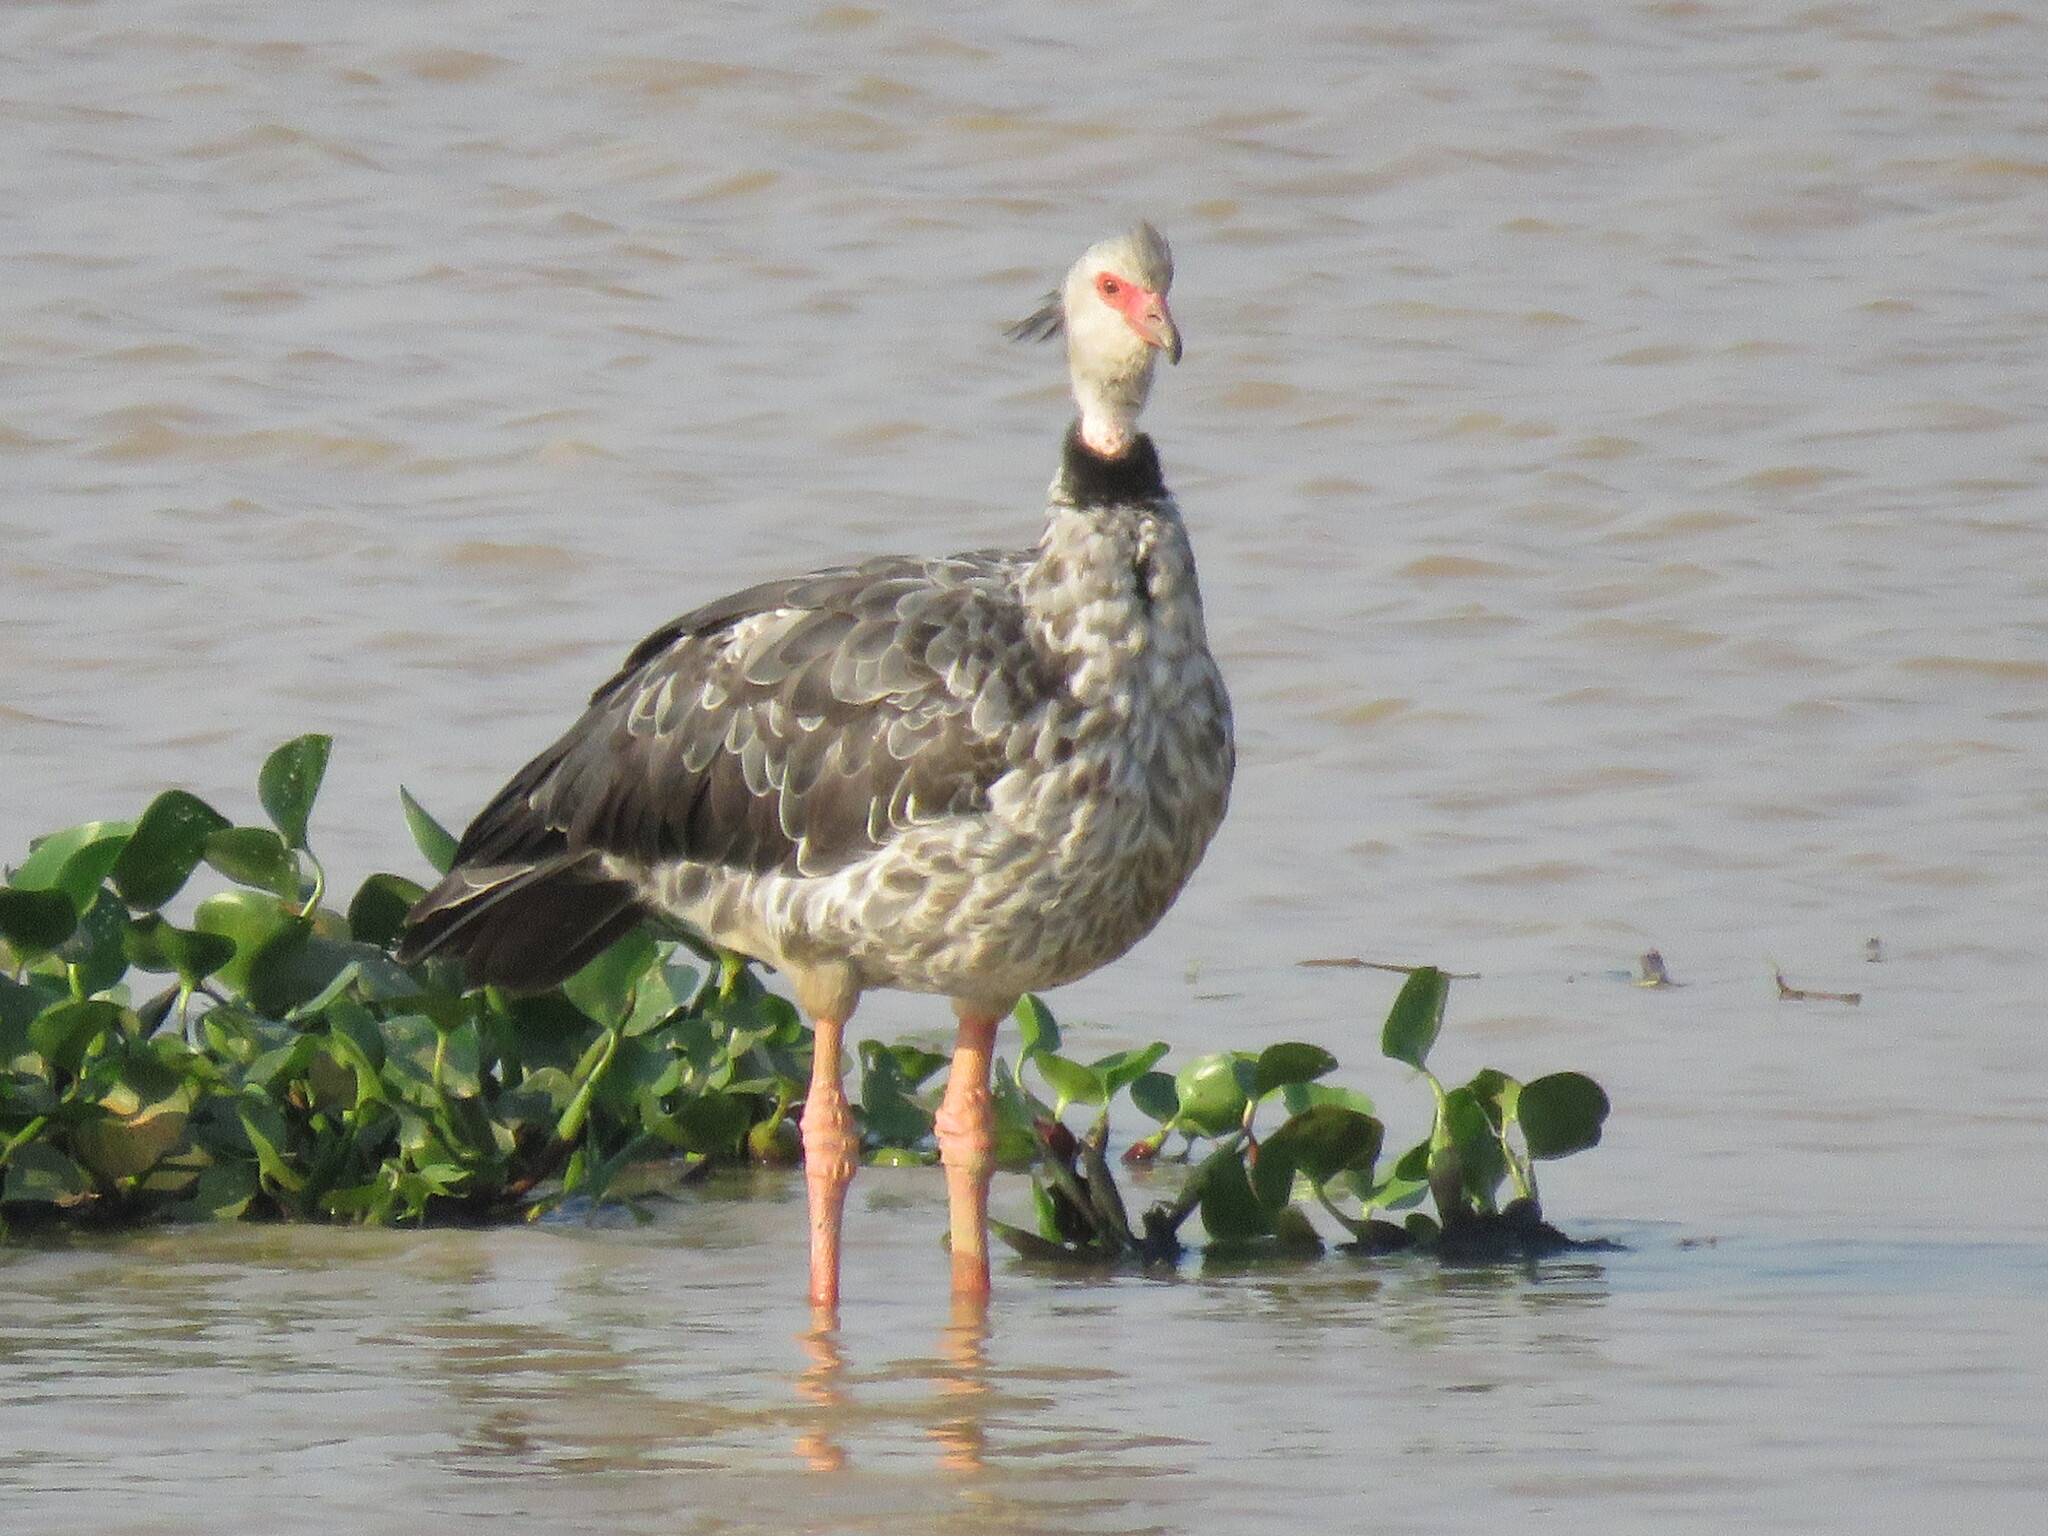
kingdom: Animalia
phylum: Chordata
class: Aves
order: Anseriformes
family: Anhimidae
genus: Chauna
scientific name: Chauna torquata
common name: Southern screamer
